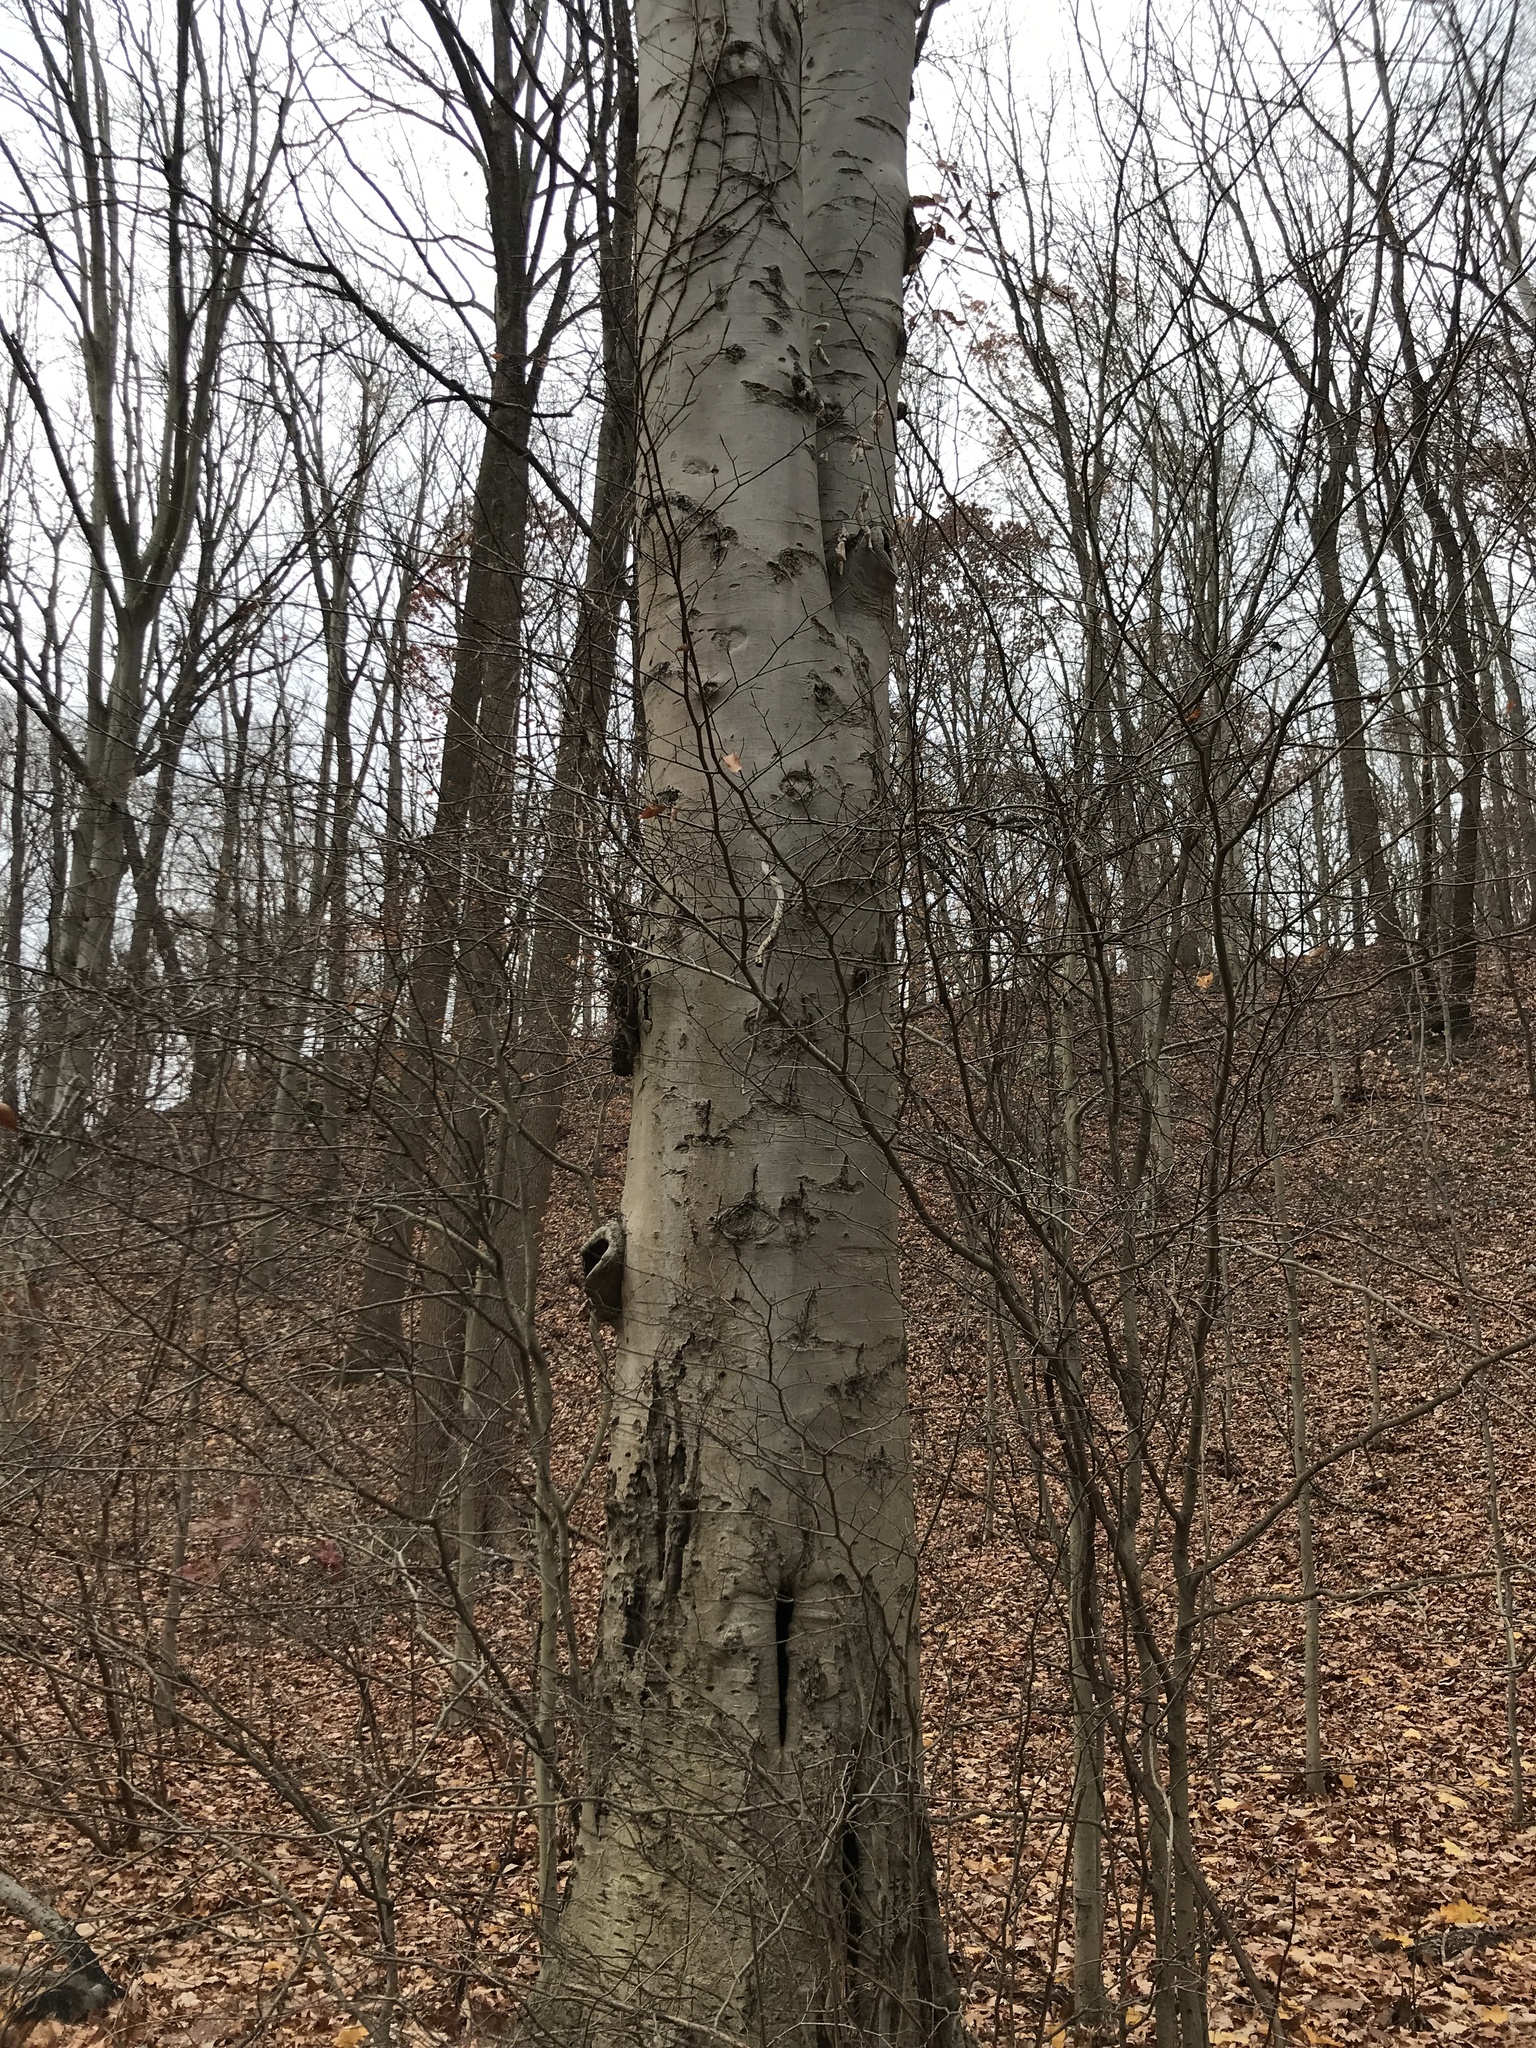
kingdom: Plantae
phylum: Tracheophyta
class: Magnoliopsida
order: Fagales
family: Fagaceae
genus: Fagus
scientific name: Fagus grandifolia
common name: American beech
